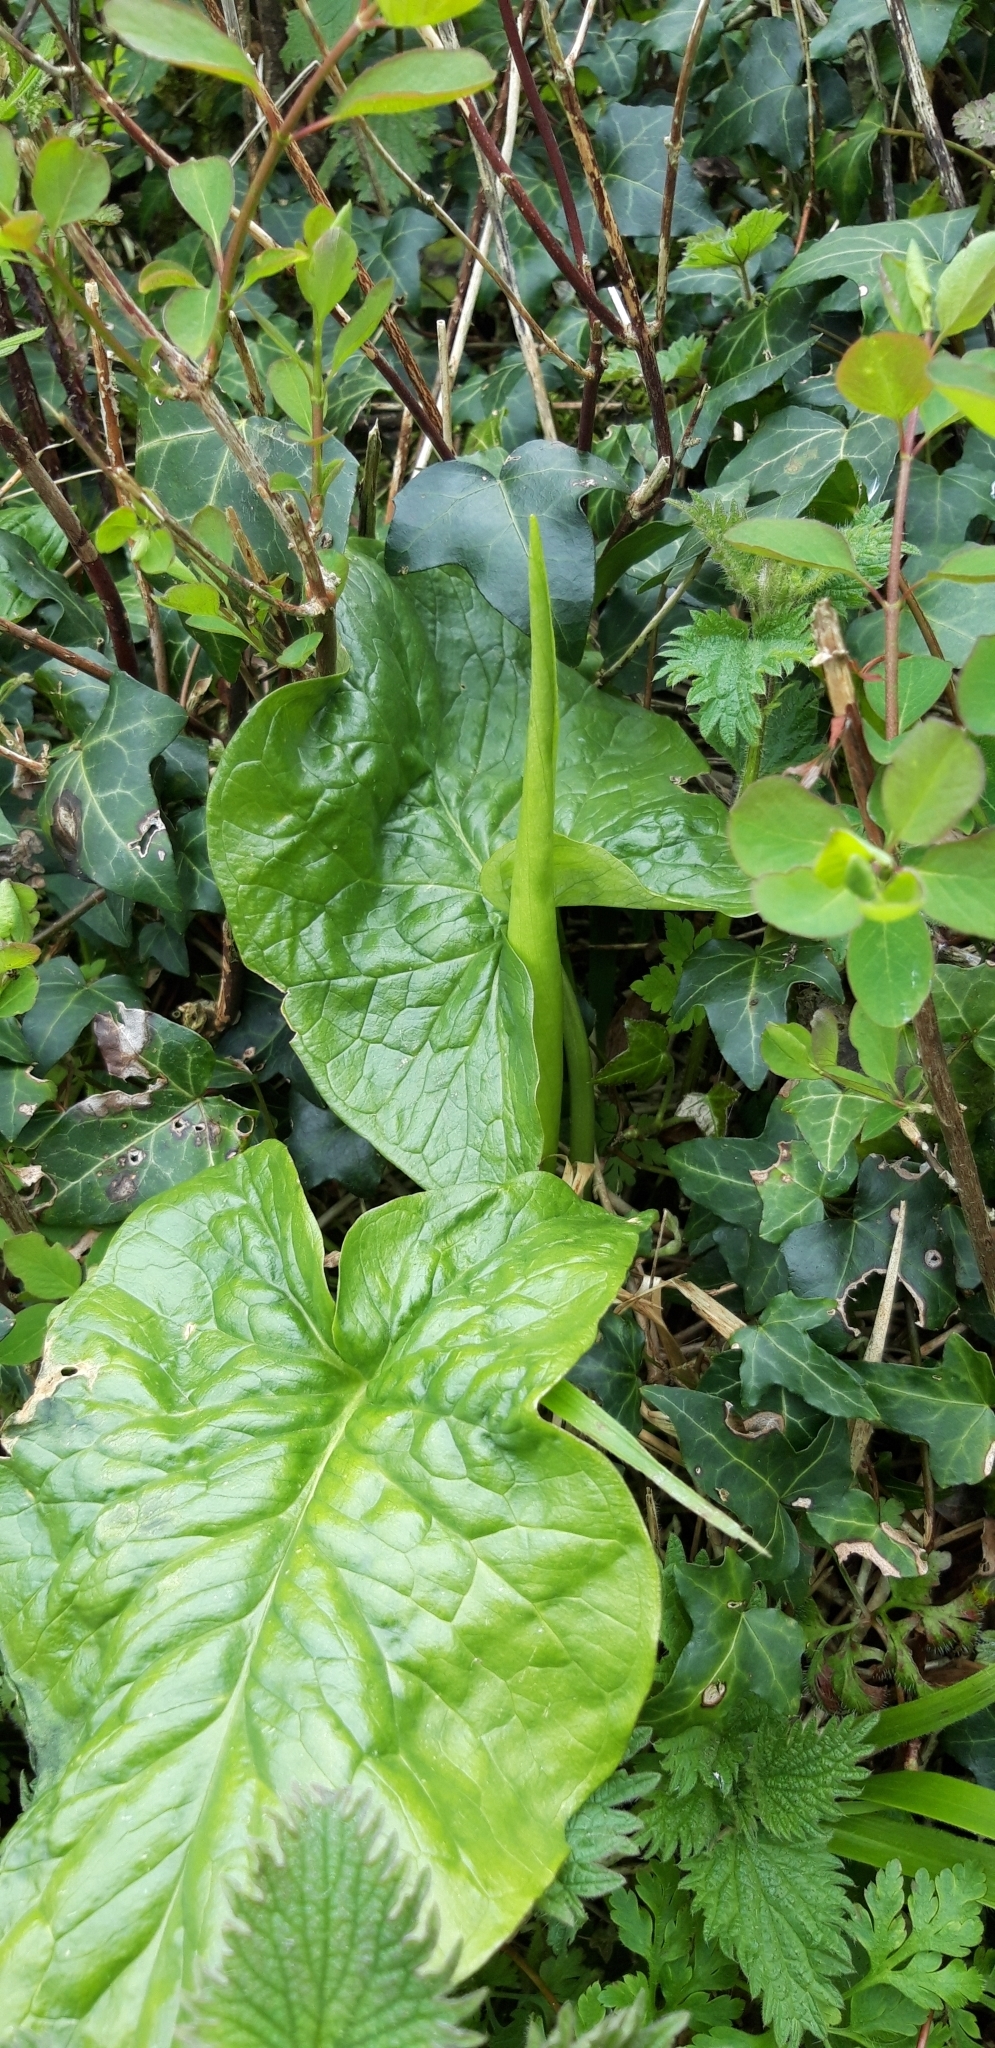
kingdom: Plantae
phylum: Tracheophyta
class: Liliopsida
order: Alismatales
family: Araceae
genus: Arum
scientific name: Arum maculatum
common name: Lords-and-ladies
